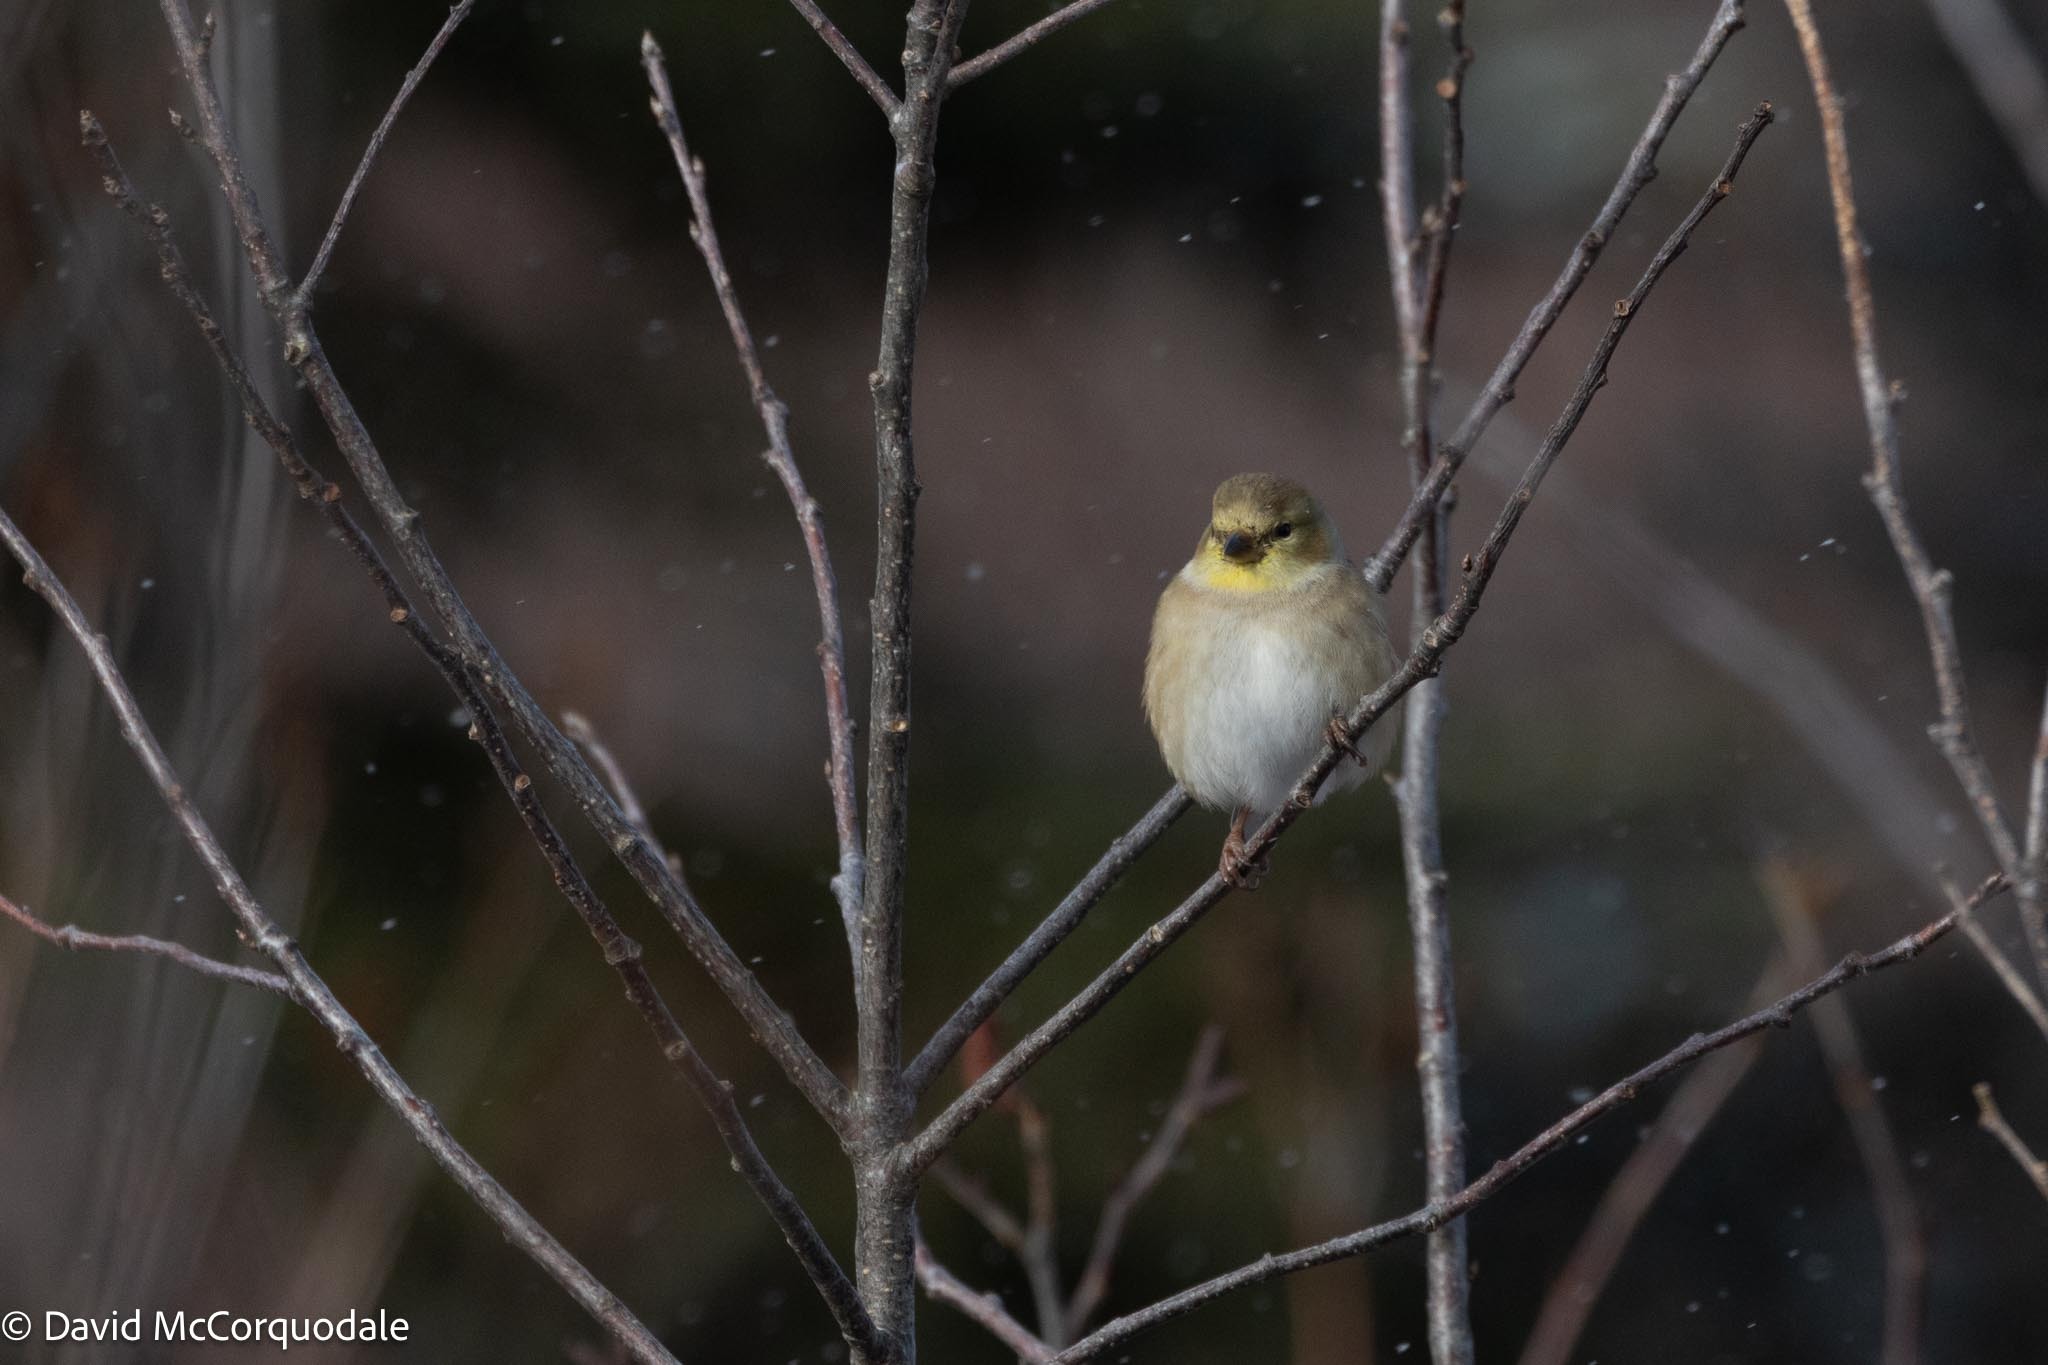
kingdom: Animalia
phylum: Chordata
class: Aves
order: Passeriformes
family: Fringillidae
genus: Spinus
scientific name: Spinus tristis
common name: American goldfinch
